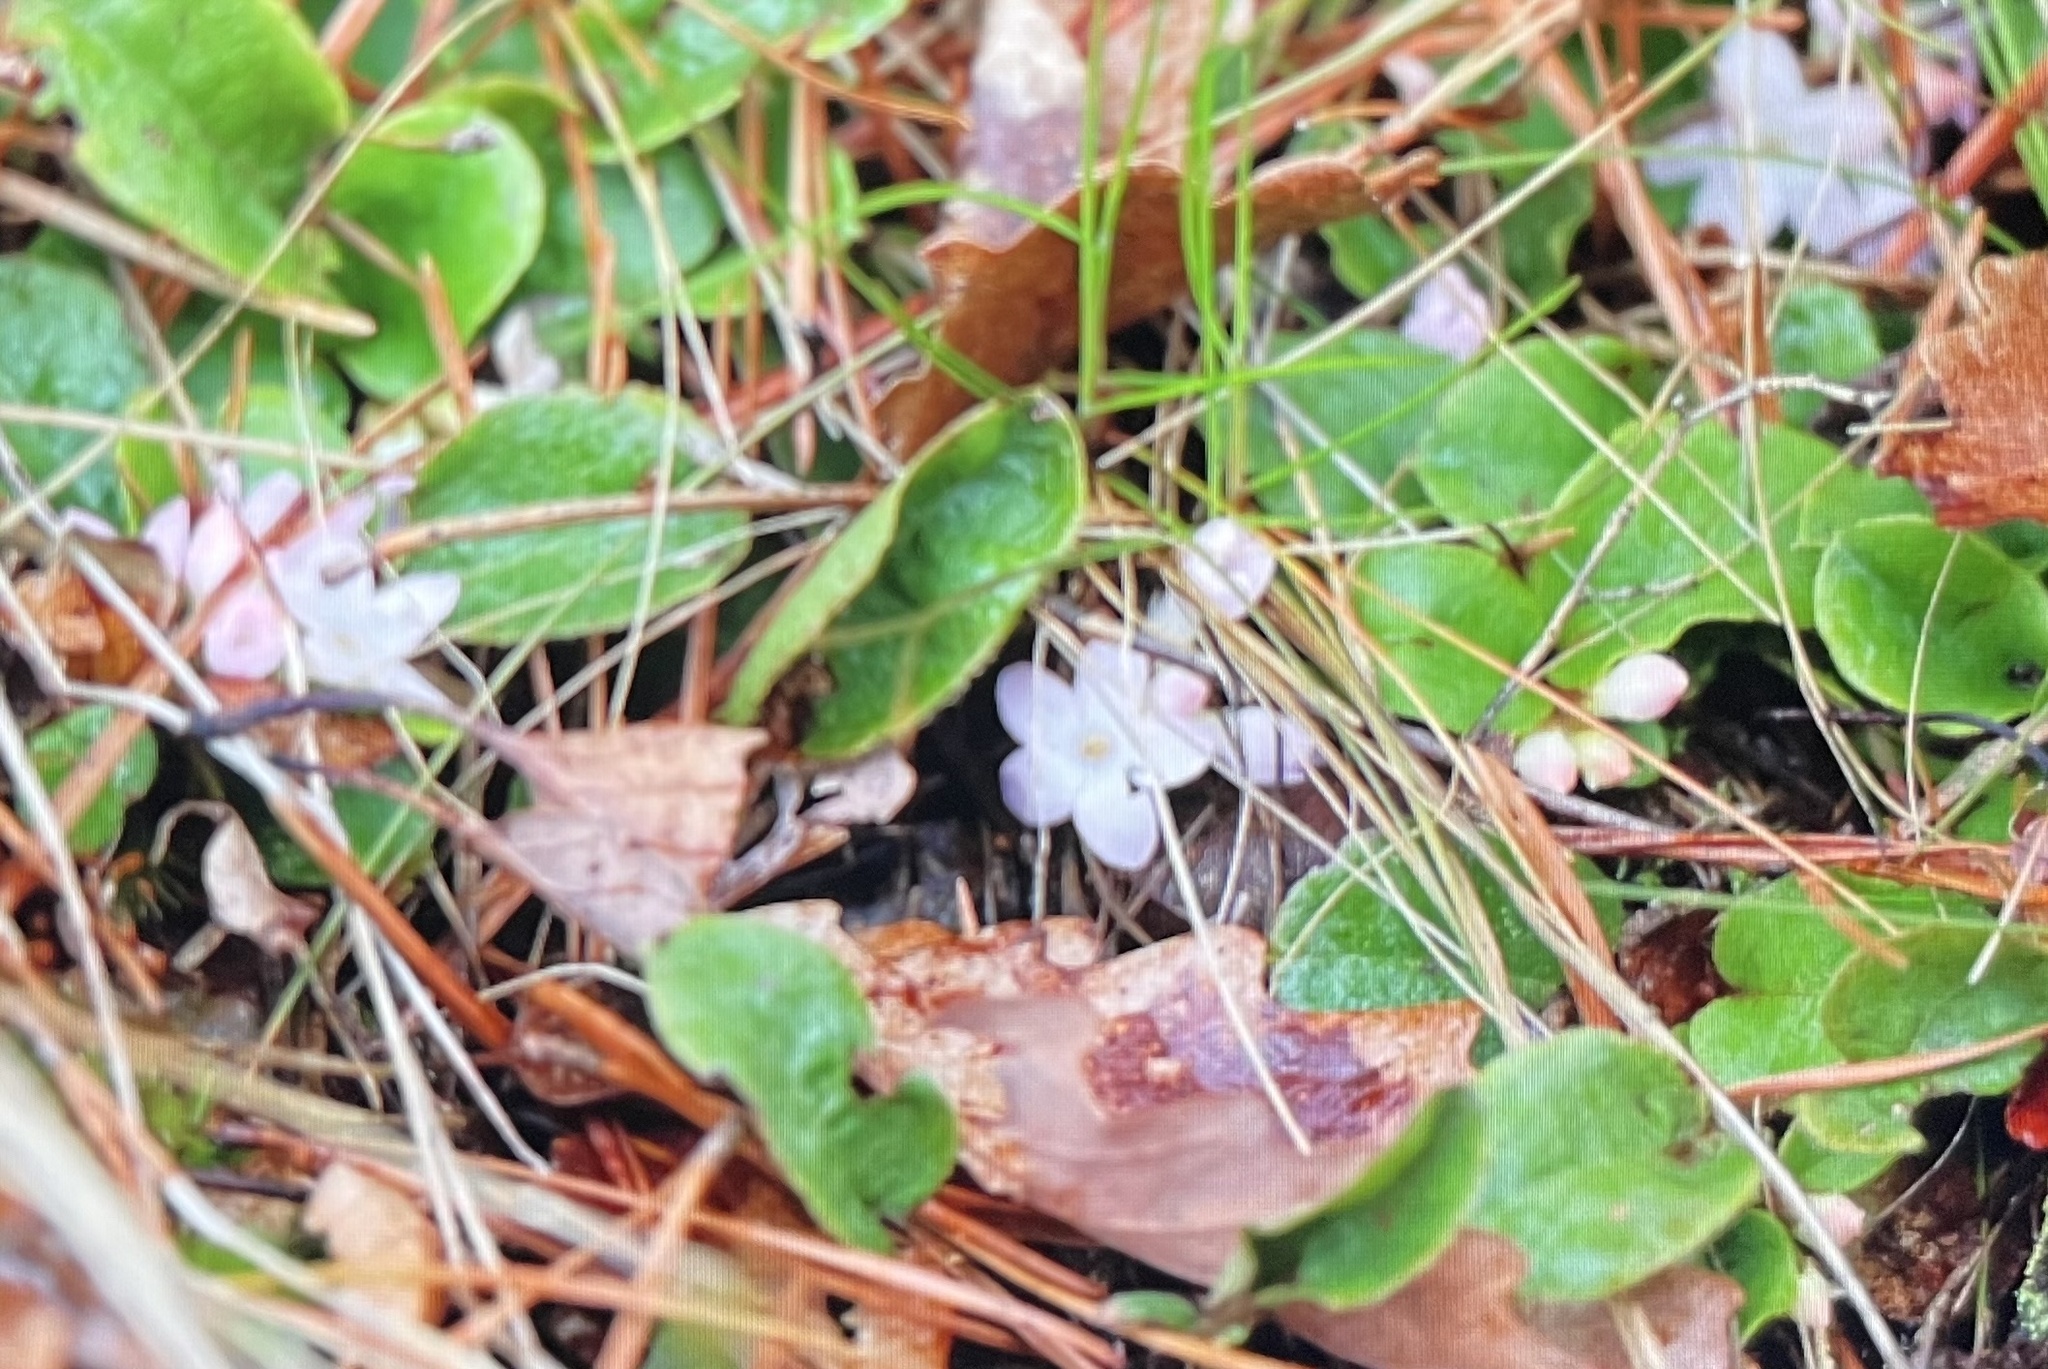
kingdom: Plantae
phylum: Tracheophyta
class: Magnoliopsida
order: Ericales
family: Ericaceae
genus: Epigaea
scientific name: Epigaea repens
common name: Gravelroot
